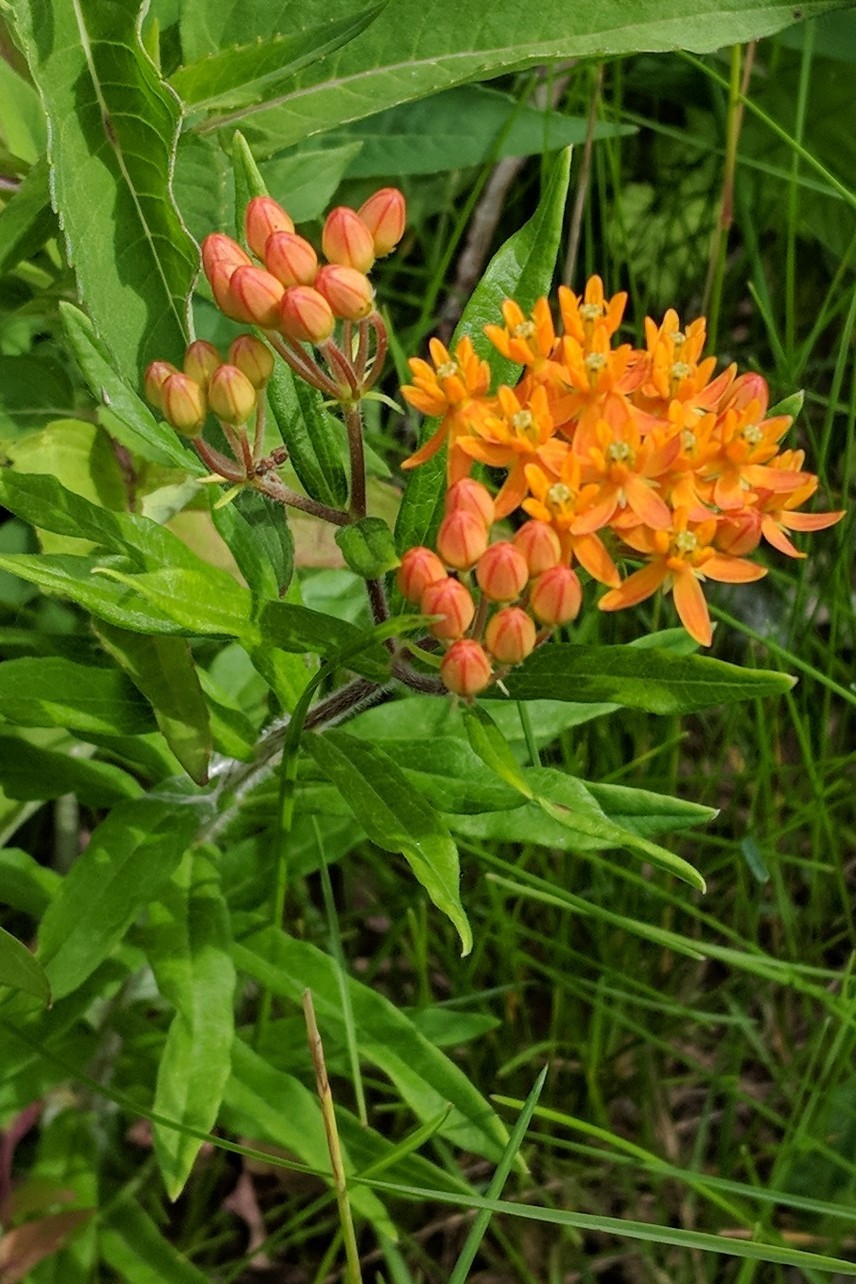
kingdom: Plantae
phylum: Tracheophyta
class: Magnoliopsida
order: Gentianales
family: Apocynaceae
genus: Asclepias
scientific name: Asclepias tuberosa
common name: Butterfly milkweed
